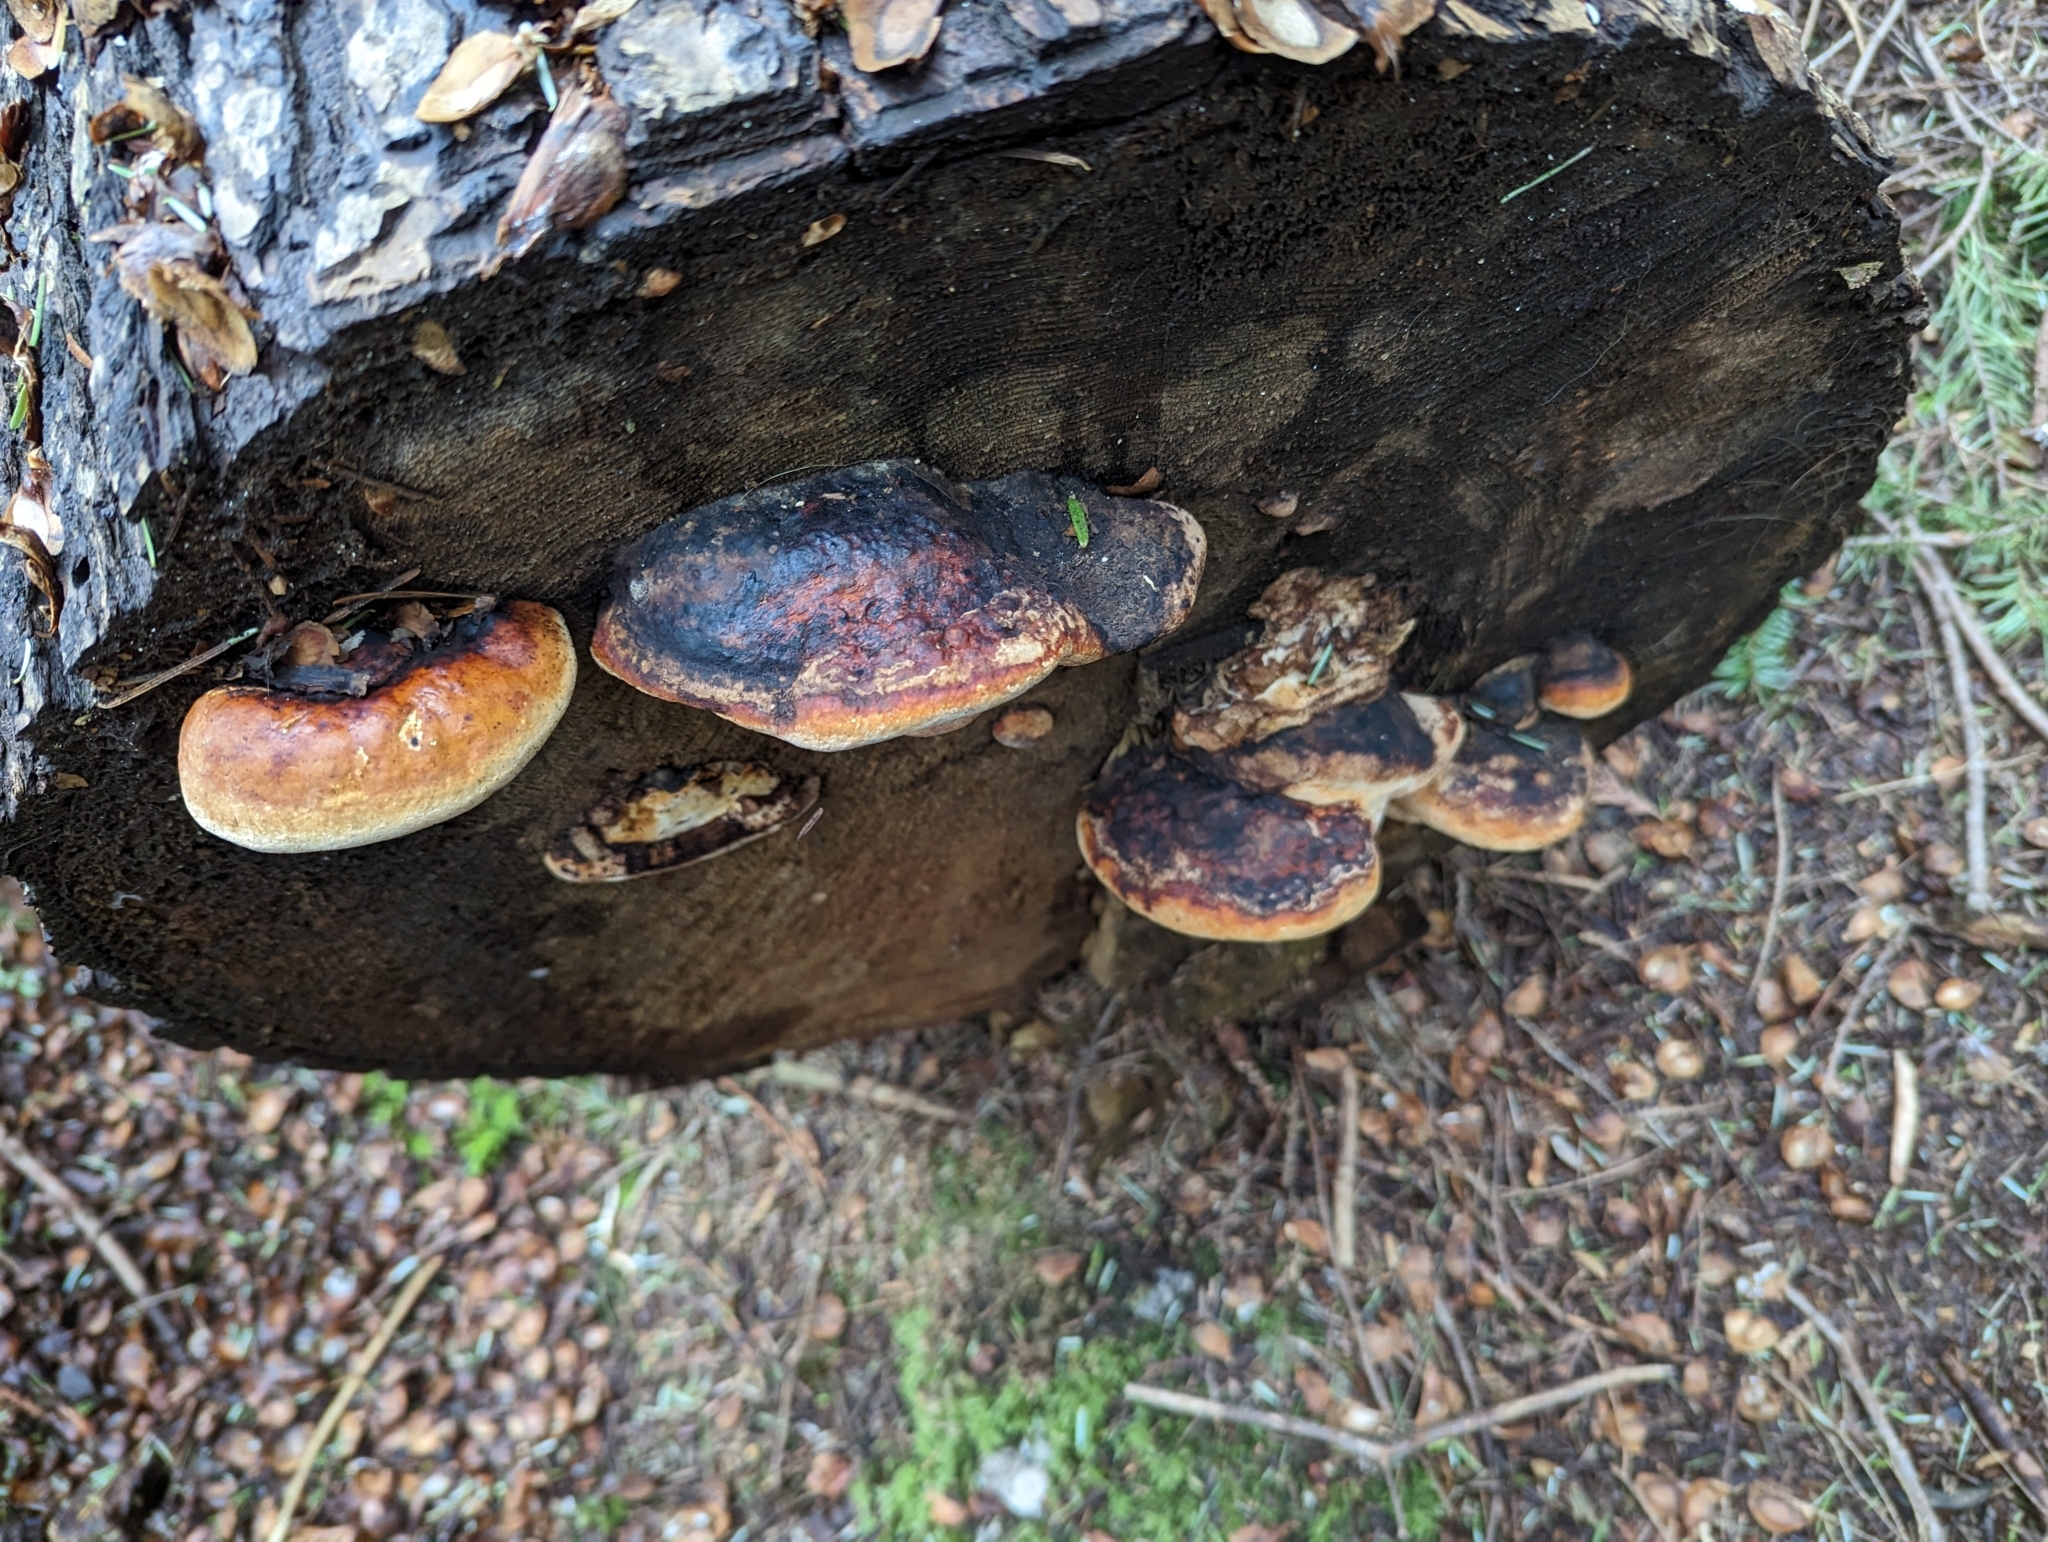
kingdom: Fungi
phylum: Basidiomycota
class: Agaricomycetes
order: Polyporales
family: Fomitopsidaceae
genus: Fomitopsis
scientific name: Fomitopsis mounceae
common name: Northern red belt
